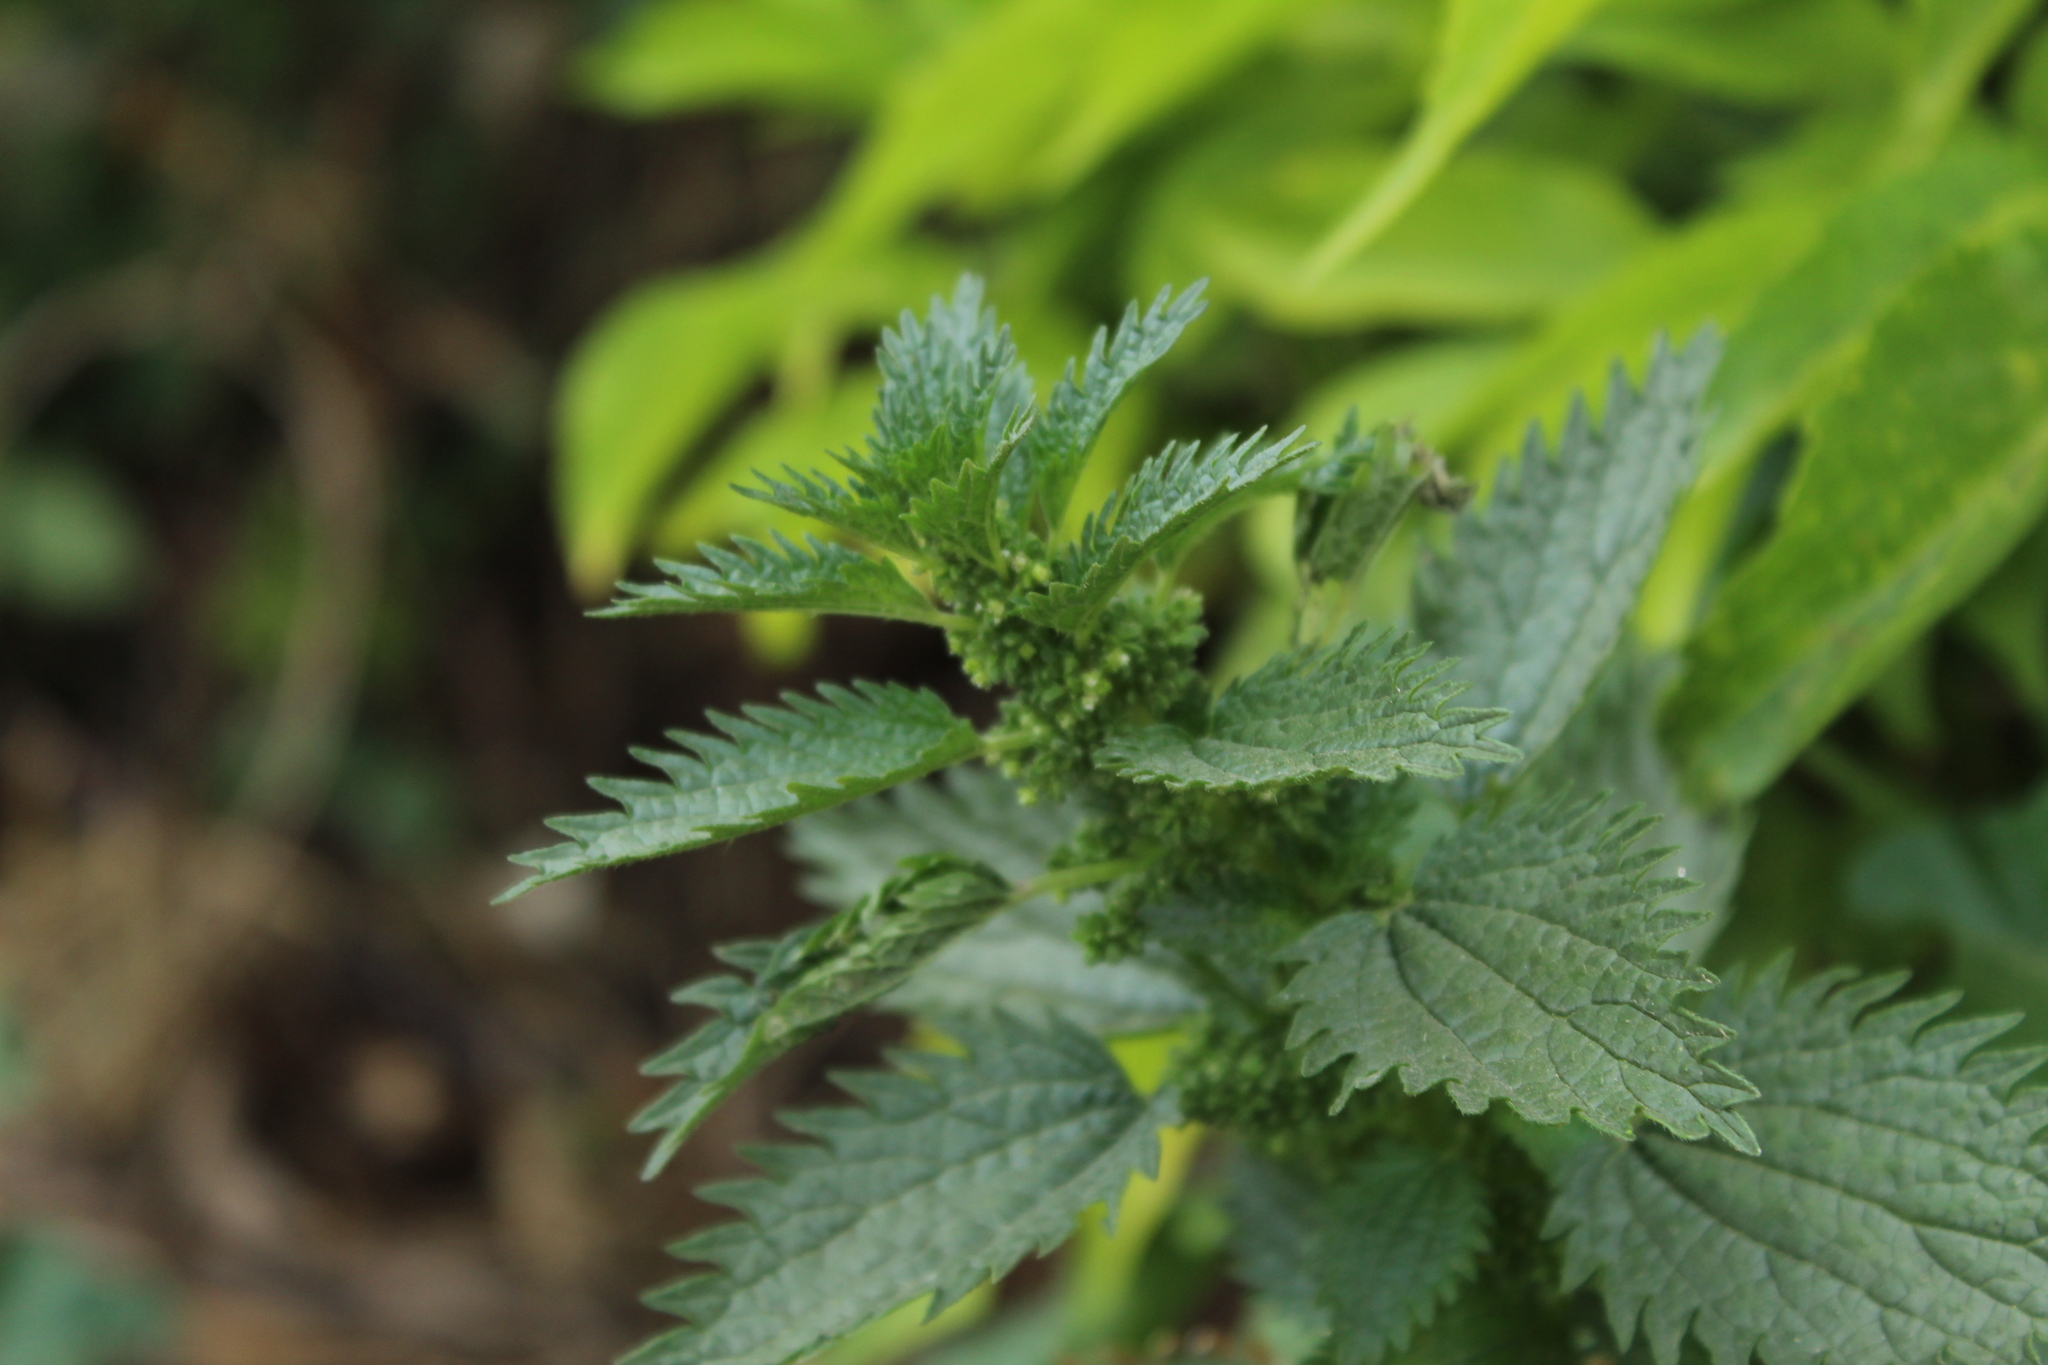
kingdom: Plantae
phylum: Tracheophyta
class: Magnoliopsida
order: Rosales
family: Urticaceae
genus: Urtica
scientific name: Urtica dioica
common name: Common nettle
